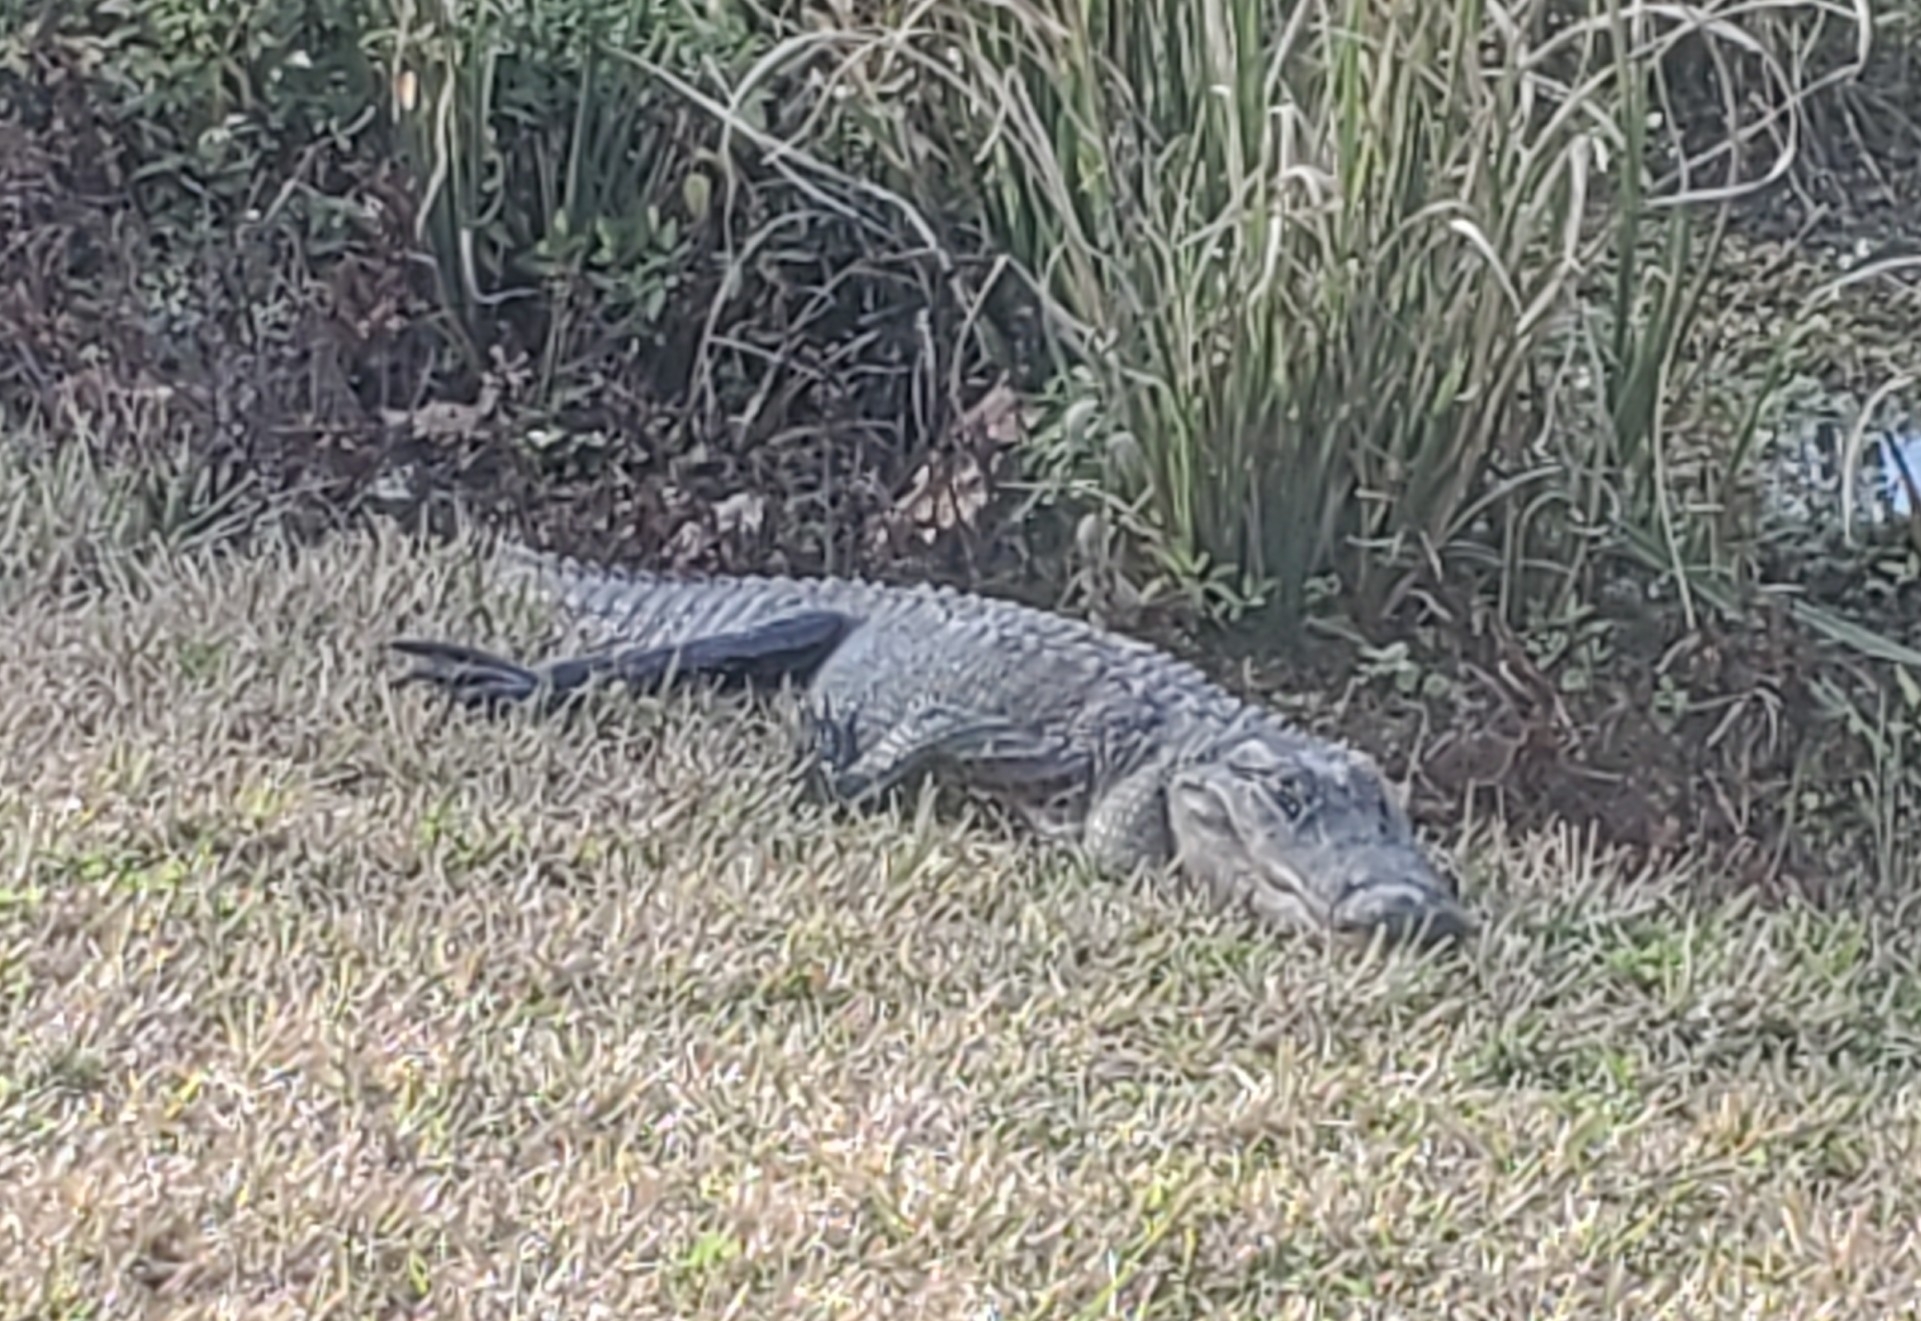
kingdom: Animalia
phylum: Chordata
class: Crocodylia
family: Alligatoridae
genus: Alligator
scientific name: Alligator mississippiensis
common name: American alligator
